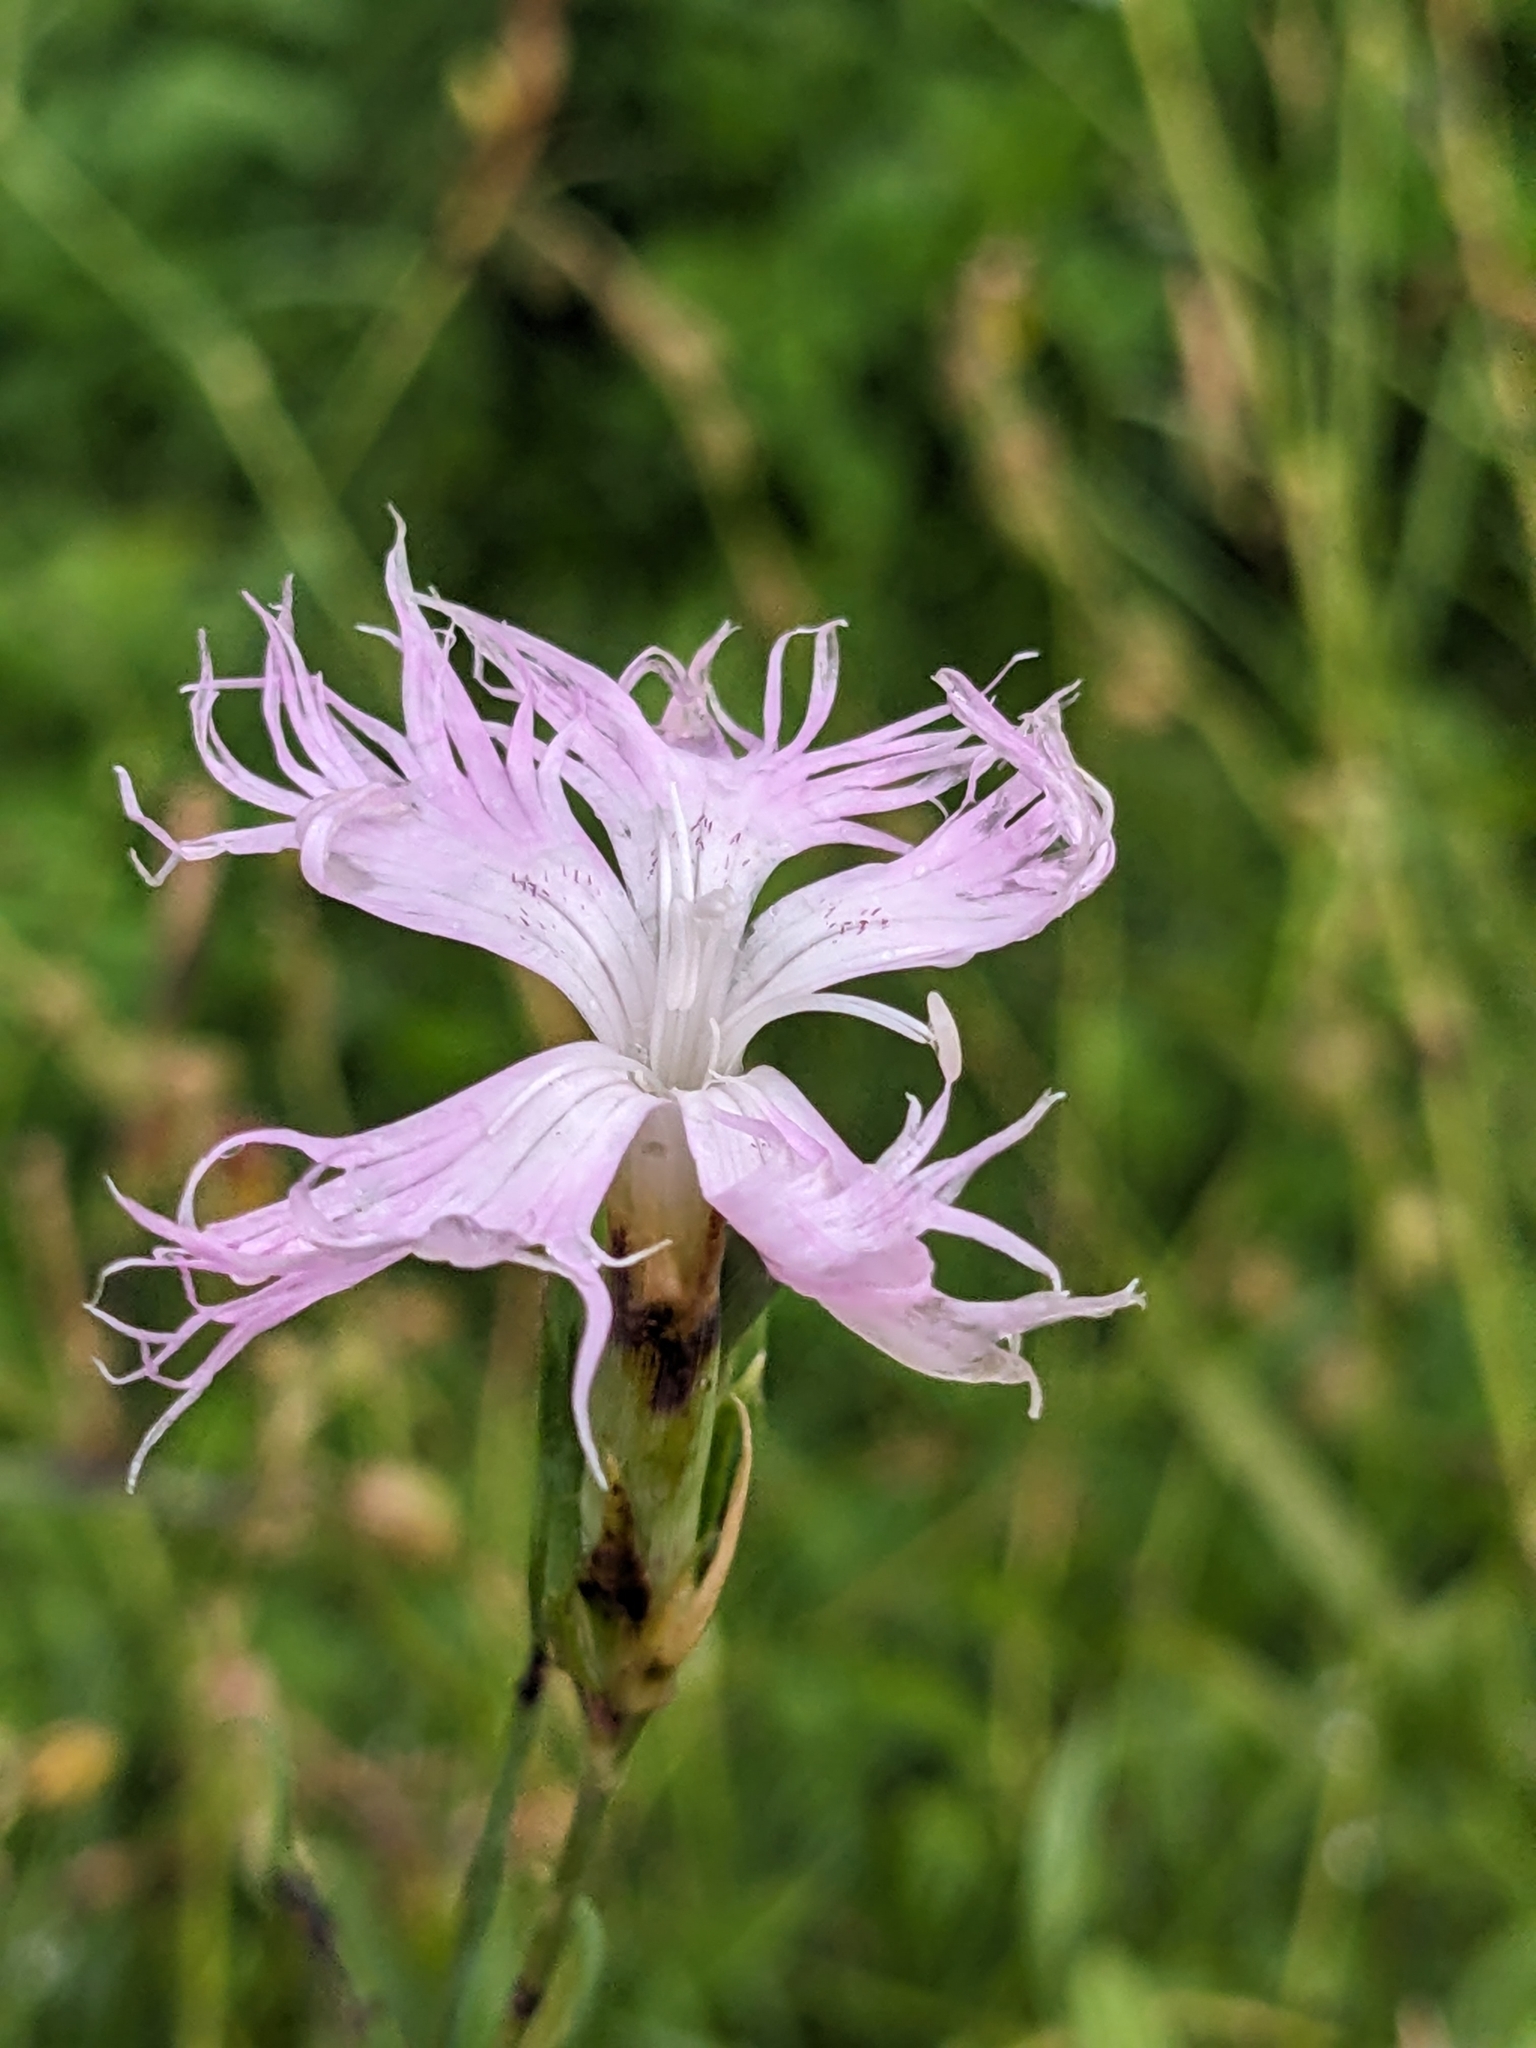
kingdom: Plantae
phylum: Tracheophyta
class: Magnoliopsida
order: Caryophyllales
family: Caryophyllaceae
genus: Dianthus
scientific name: Dianthus hyssopifolius
